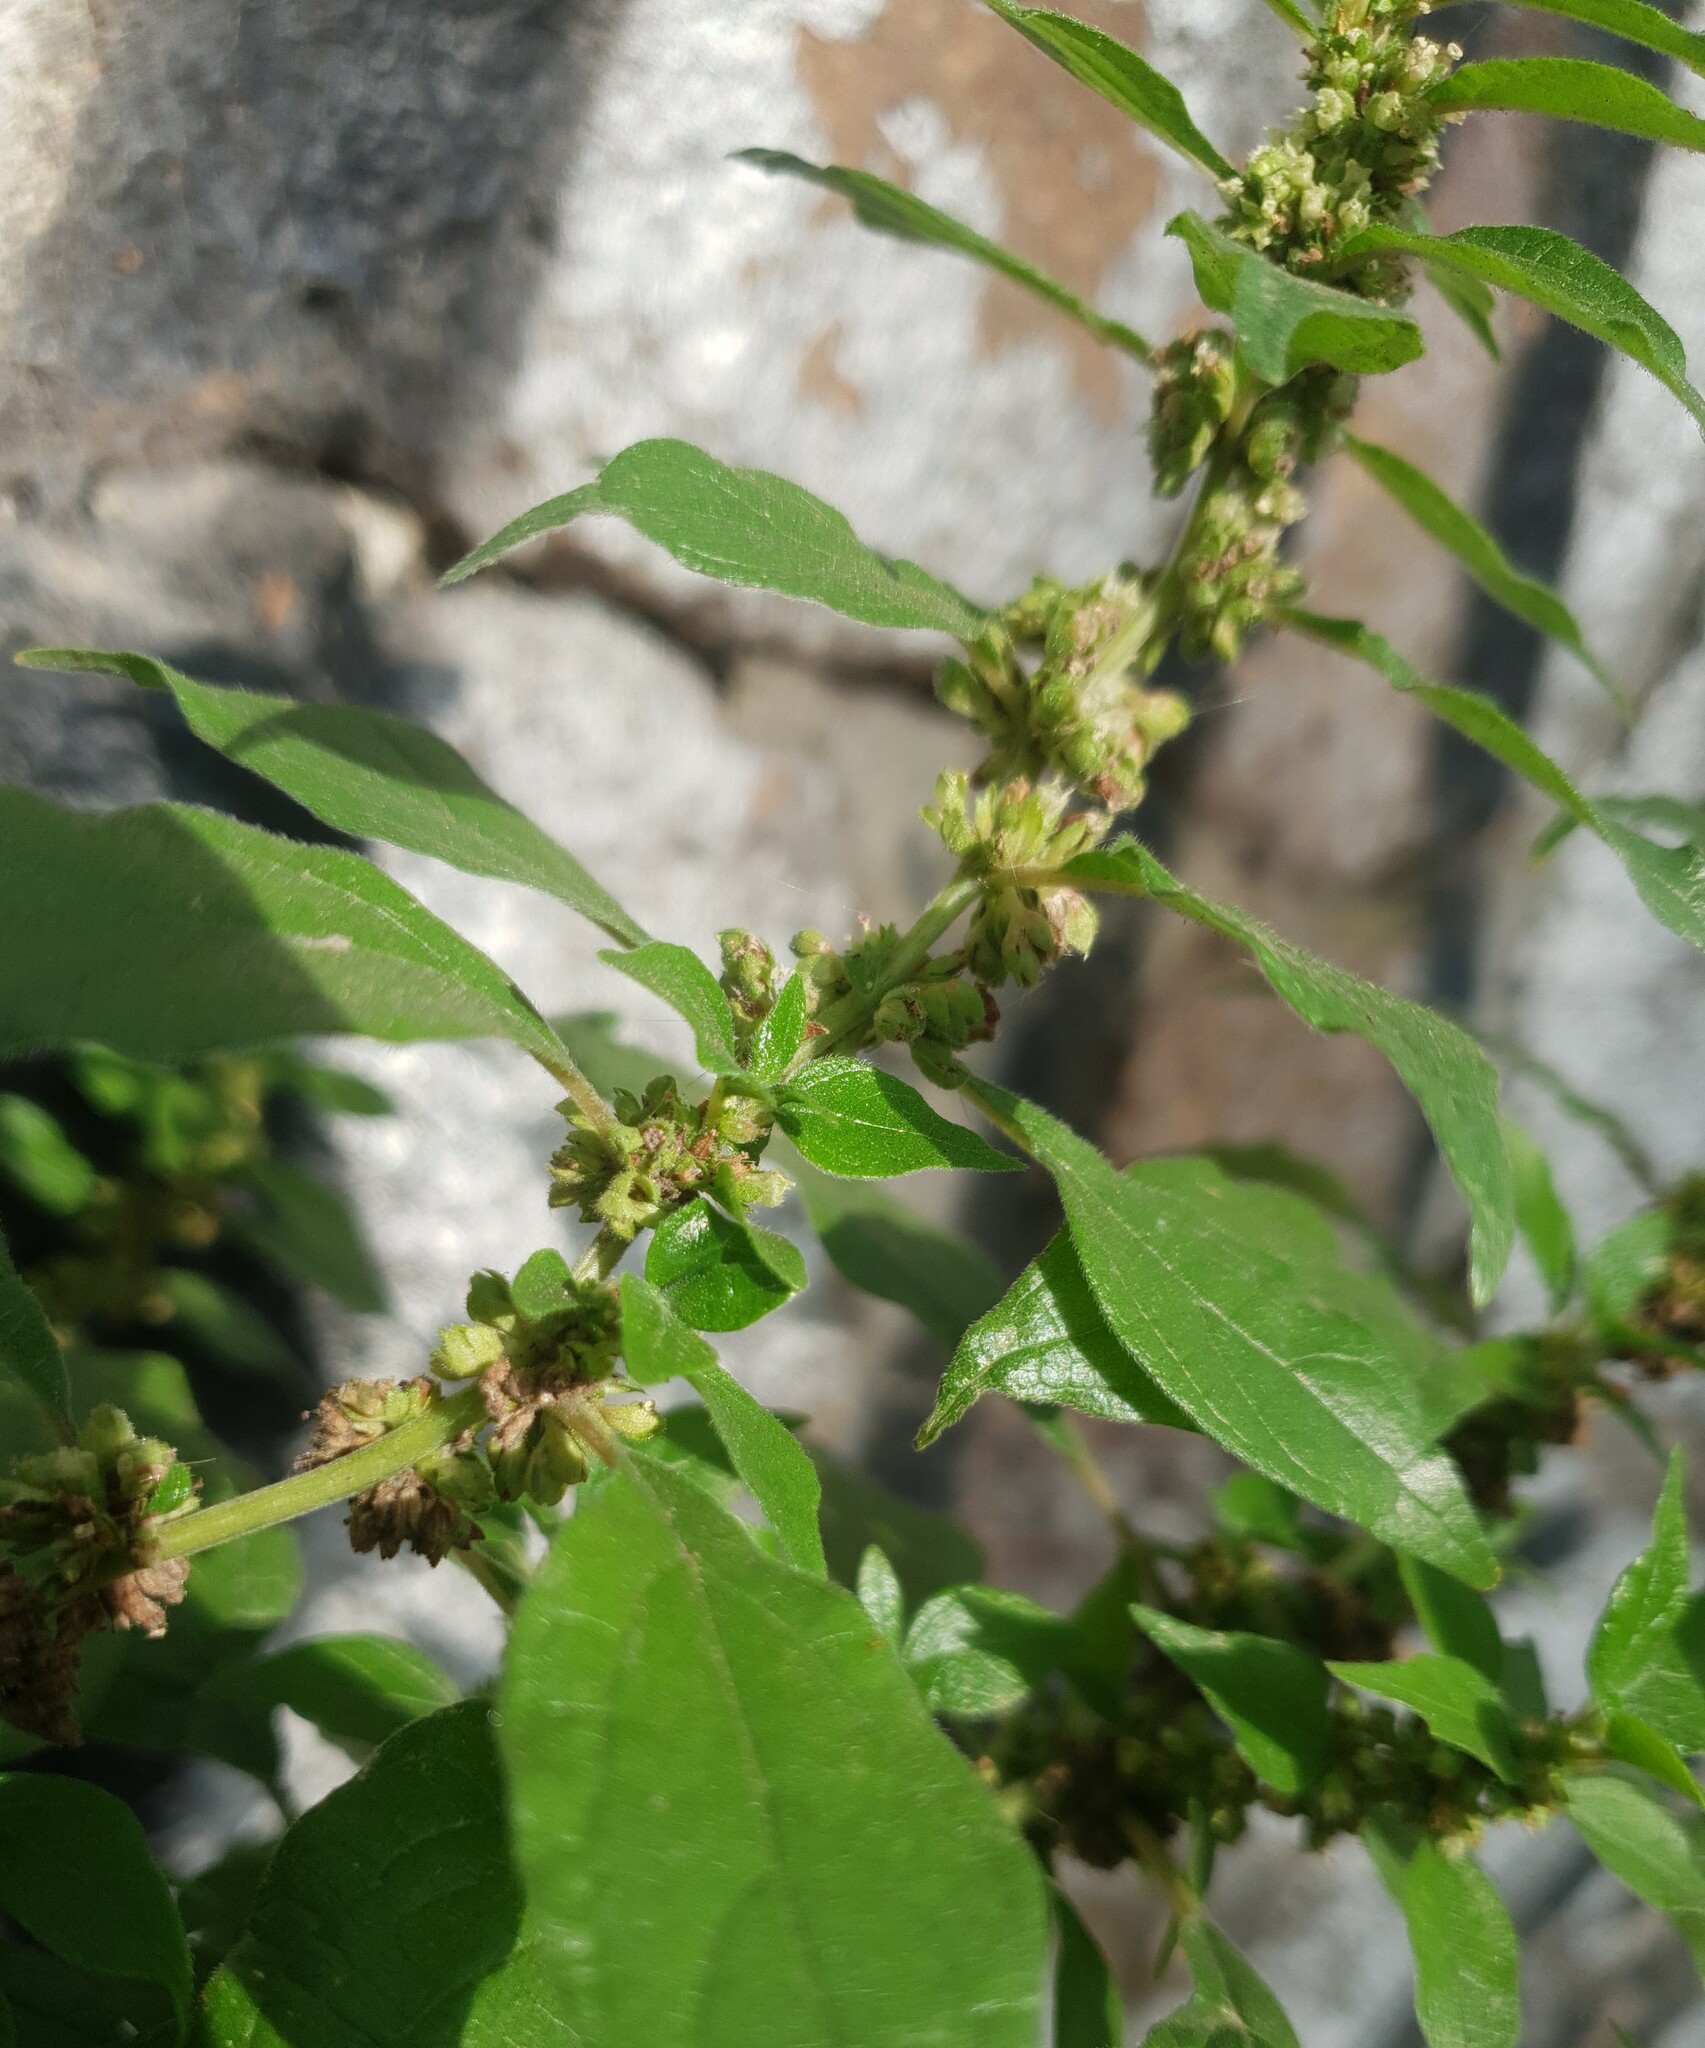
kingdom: Plantae
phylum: Tracheophyta
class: Magnoliopsida
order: Rosales
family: Urticaceae
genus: Parietaria
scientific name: Parietaria officinalis
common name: Eastern pellitory-of-the-wall
